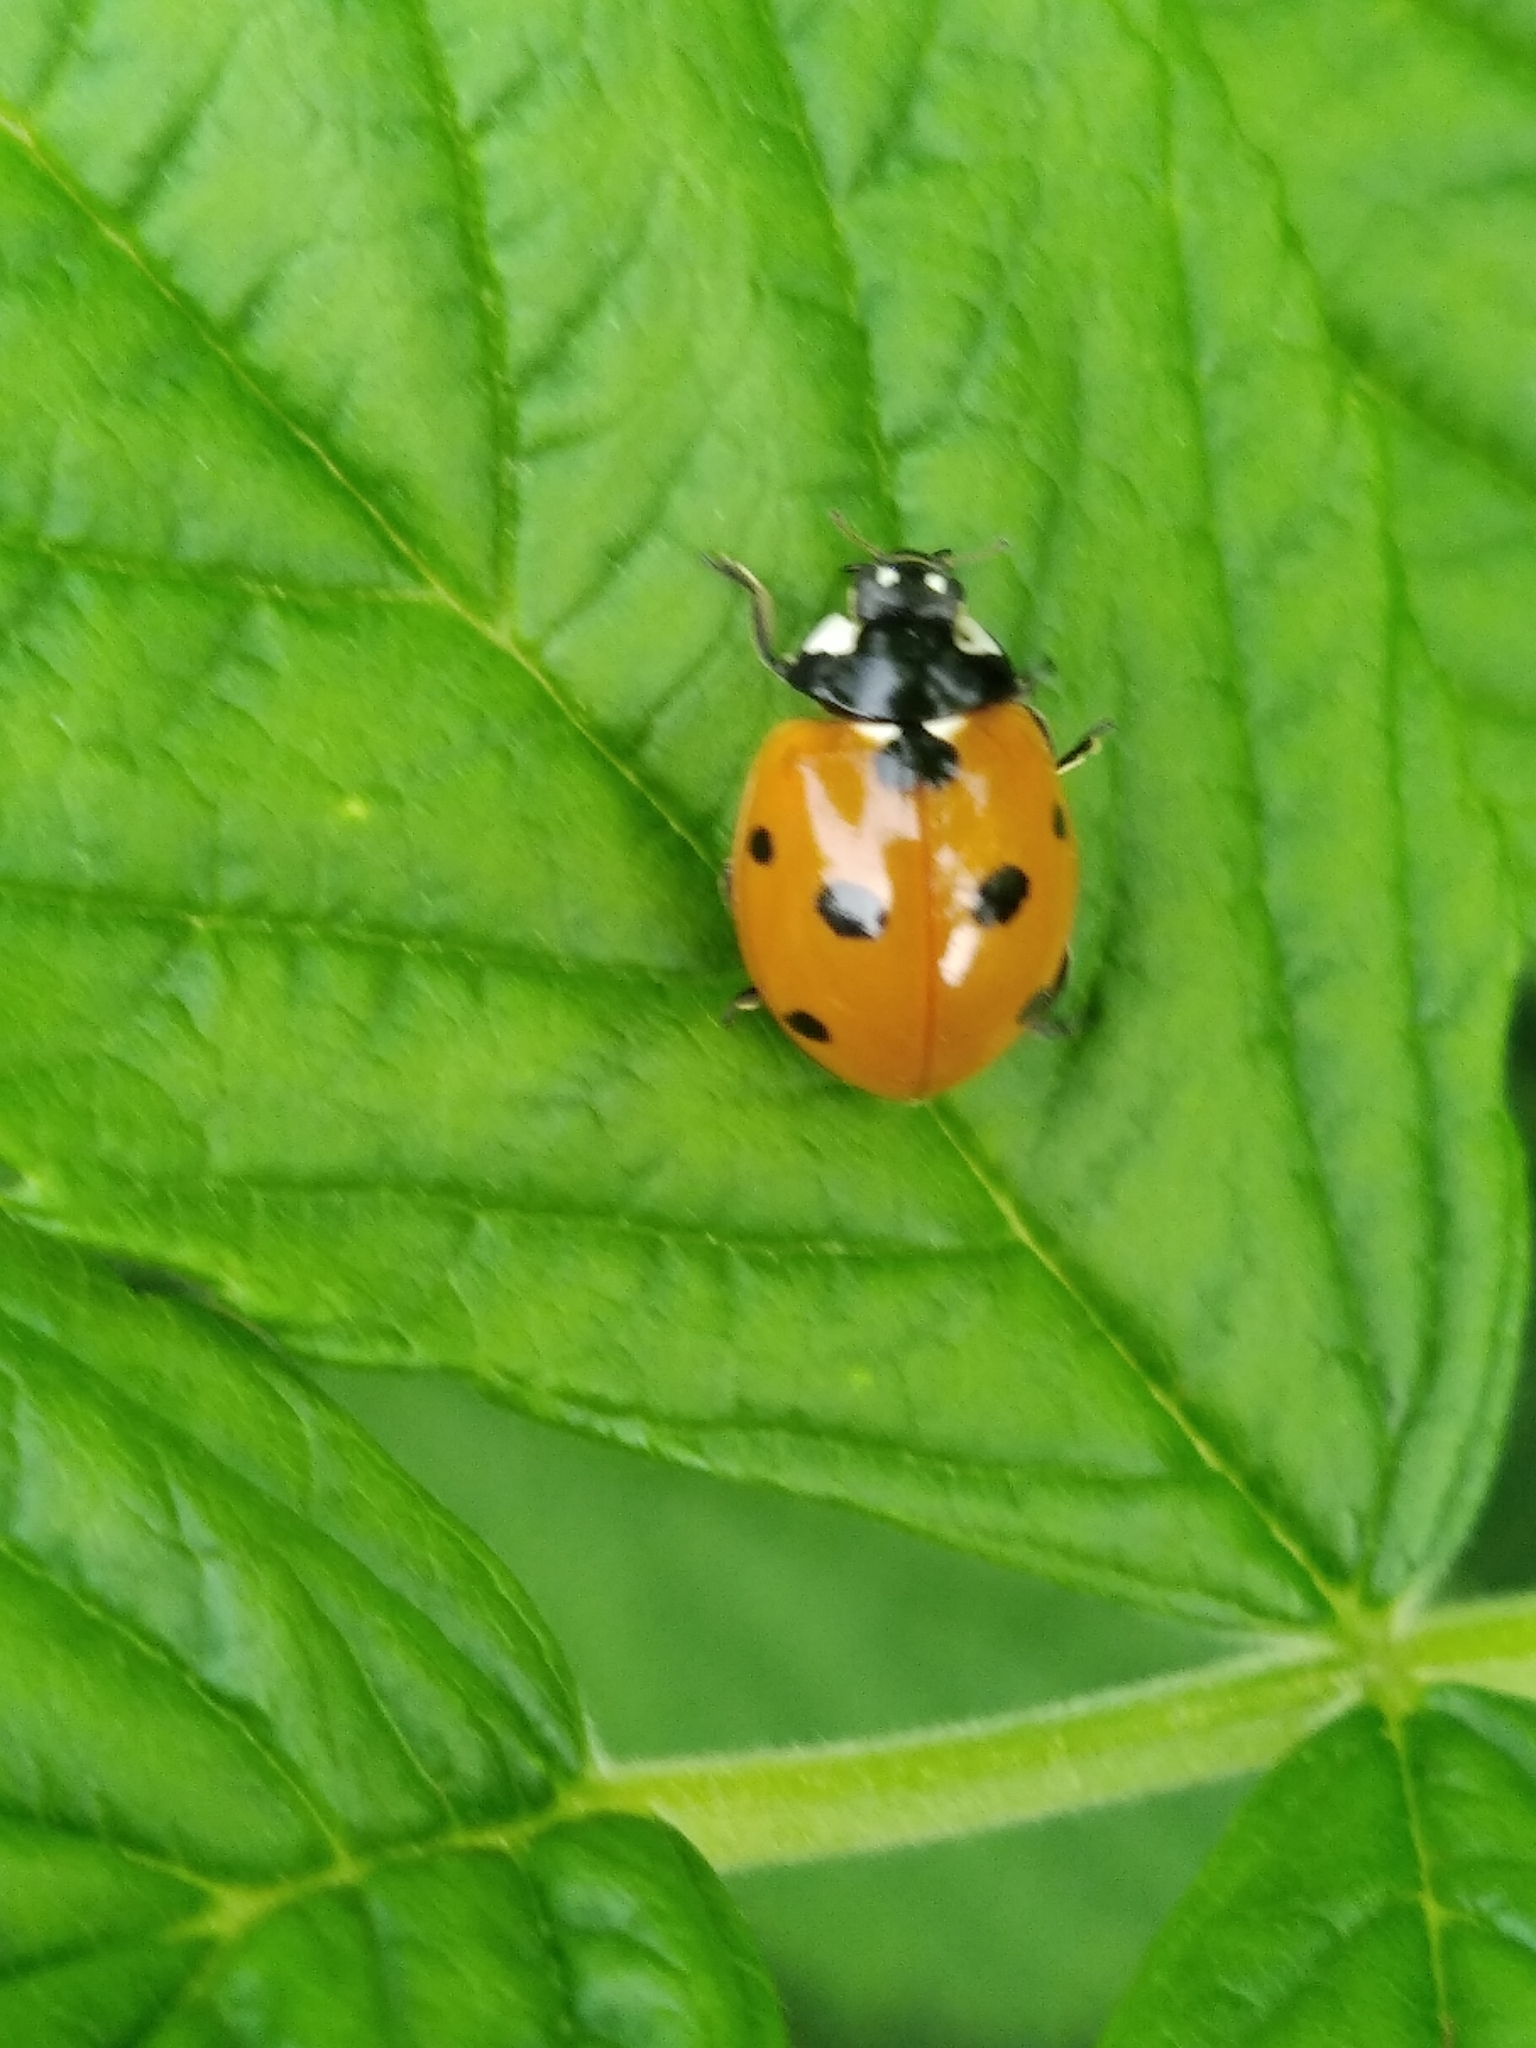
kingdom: Animalia
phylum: Arthropoda
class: Insecta
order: Coleoptera
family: Coccinellidae
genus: Coccinella
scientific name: Coccinella septempunctata
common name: Sevenspotted lady beetle
